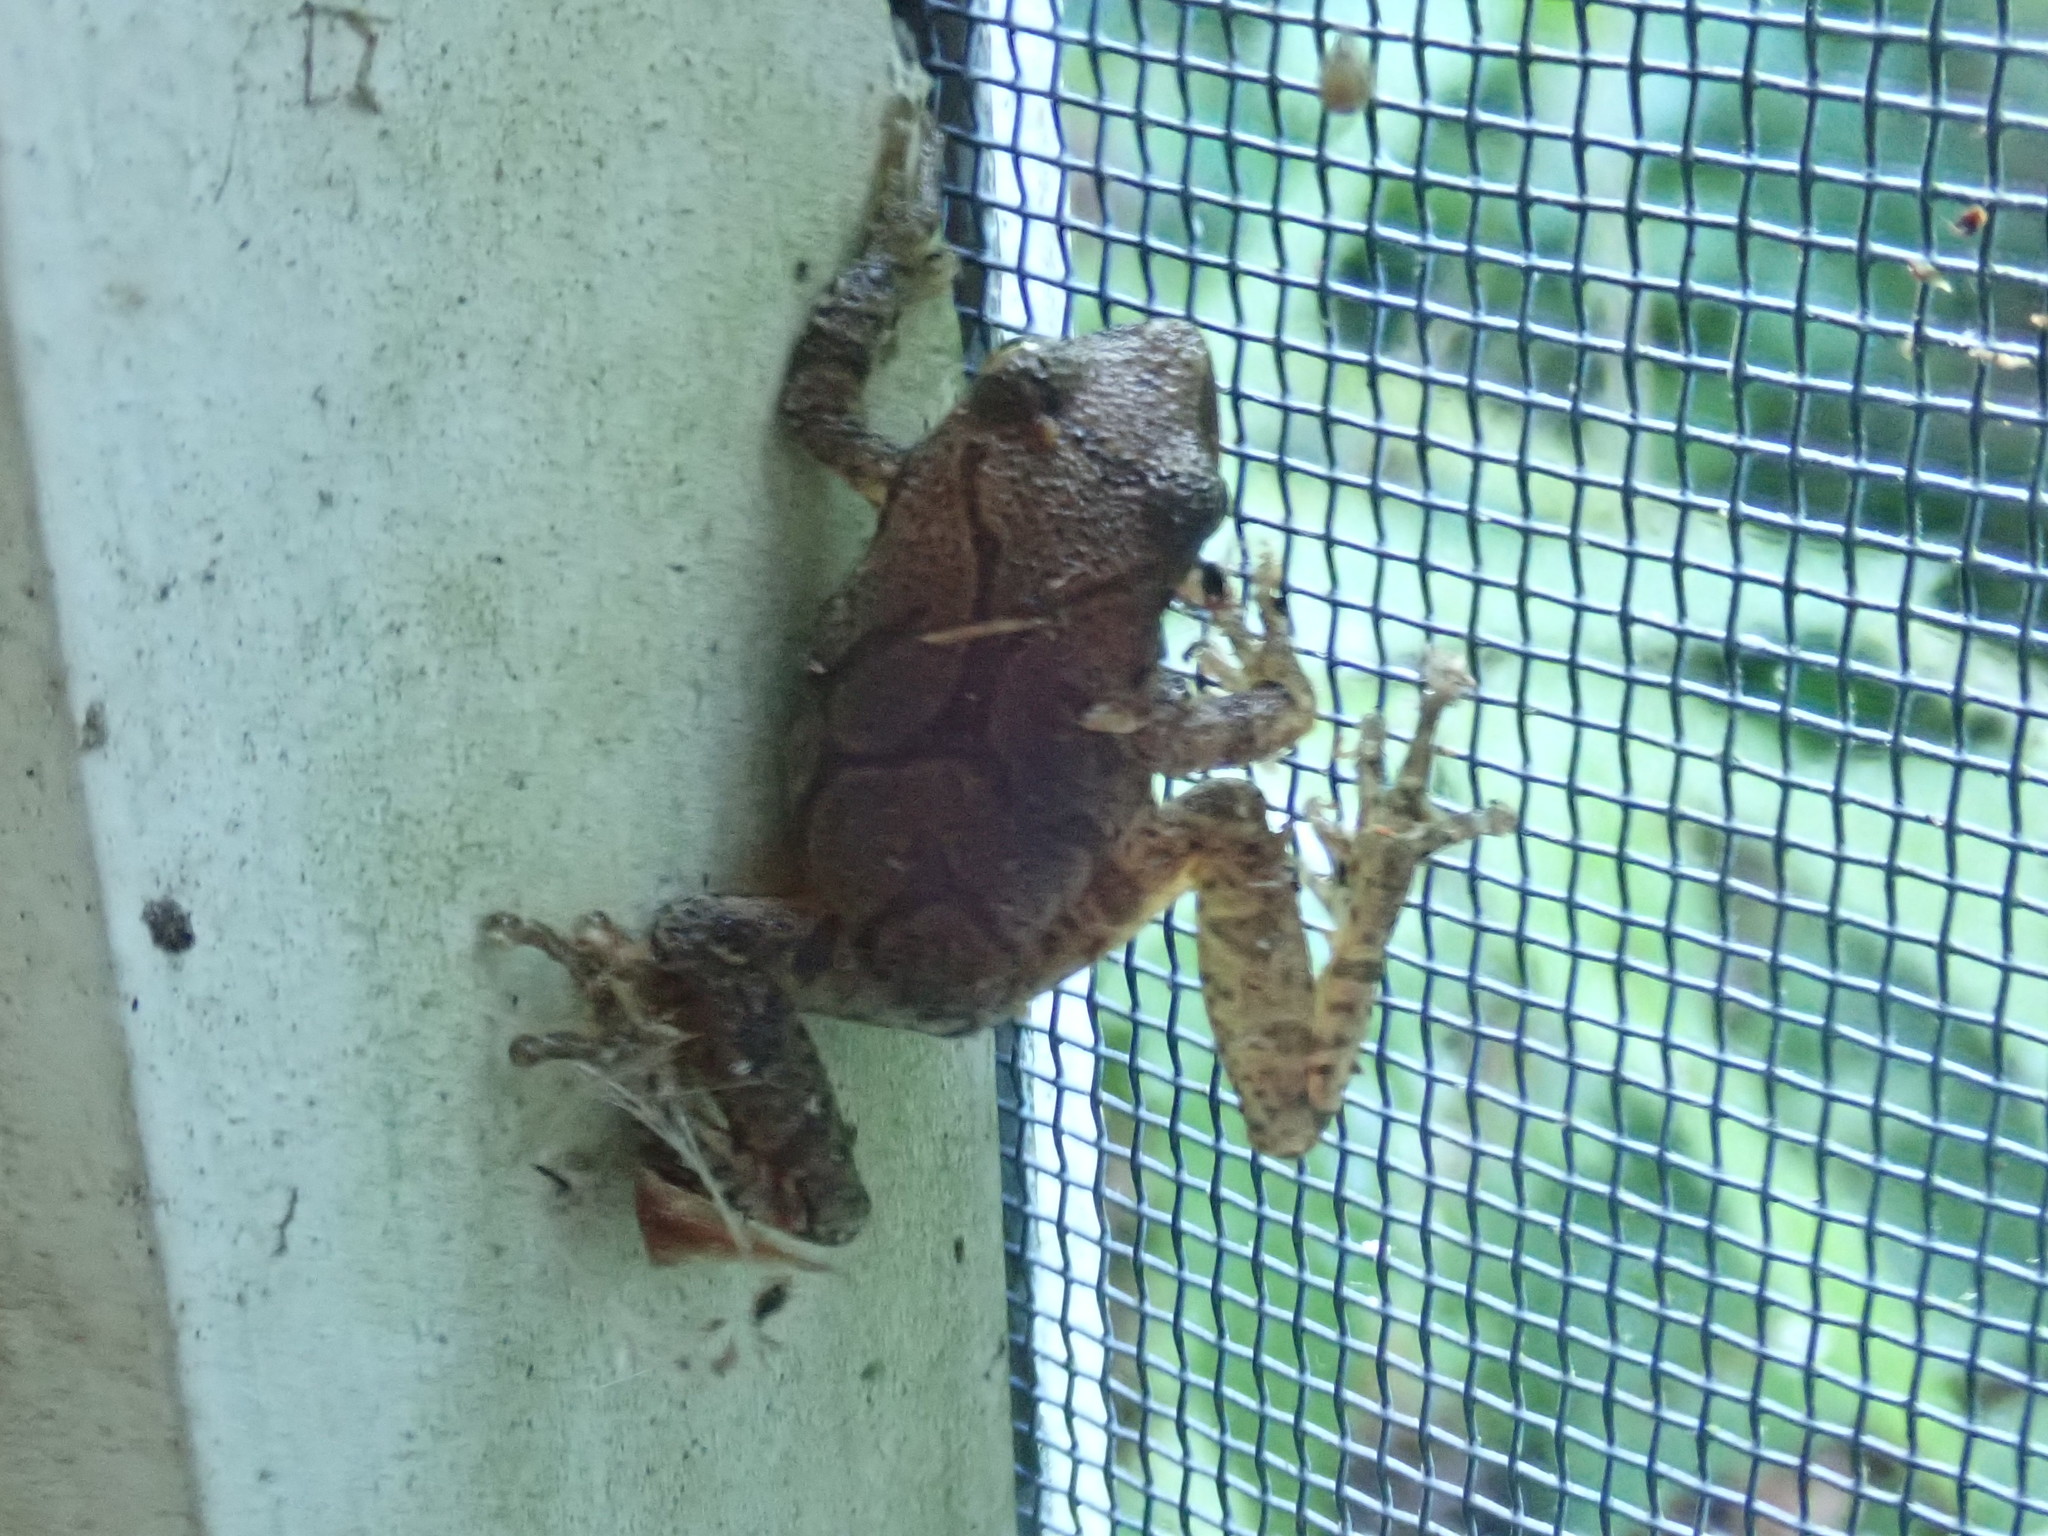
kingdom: Animalia
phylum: Chordata
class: Amphibia
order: Anura
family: Hylidae
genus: Pseudacris
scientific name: Pseudacris crucifer
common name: Spring peeper
